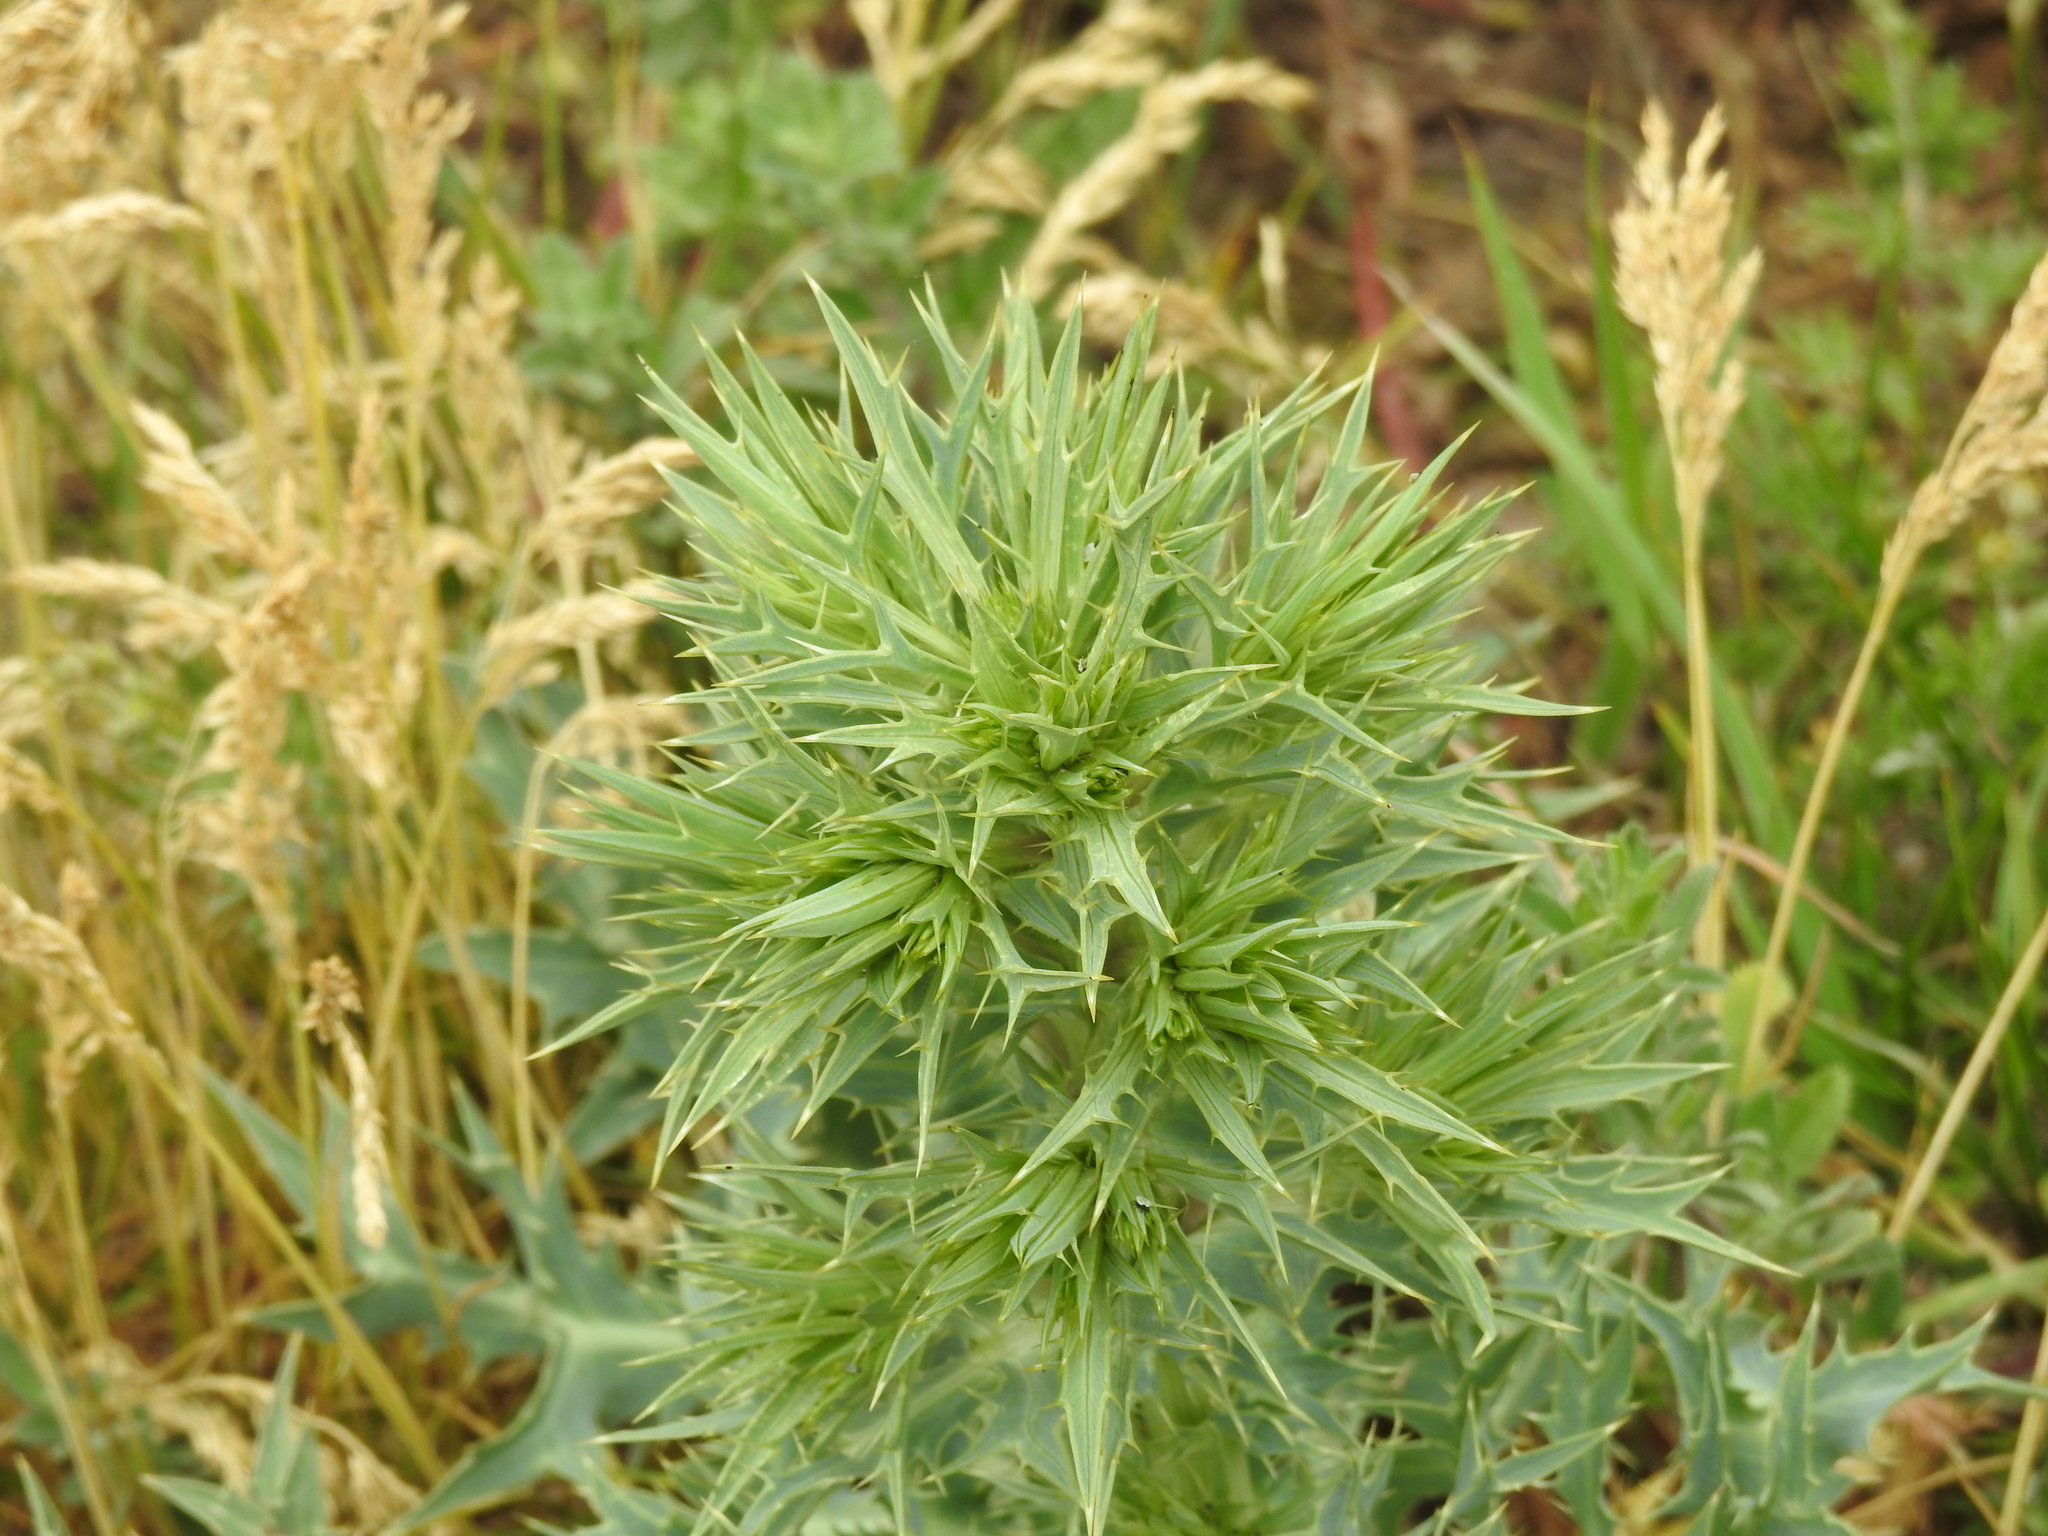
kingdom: Plantae
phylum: Tracheophyta
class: Magnoliopsida
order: Apiales
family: Apiaceae
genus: Eryngium
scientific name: Eryngium campestre
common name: Field eryngo
